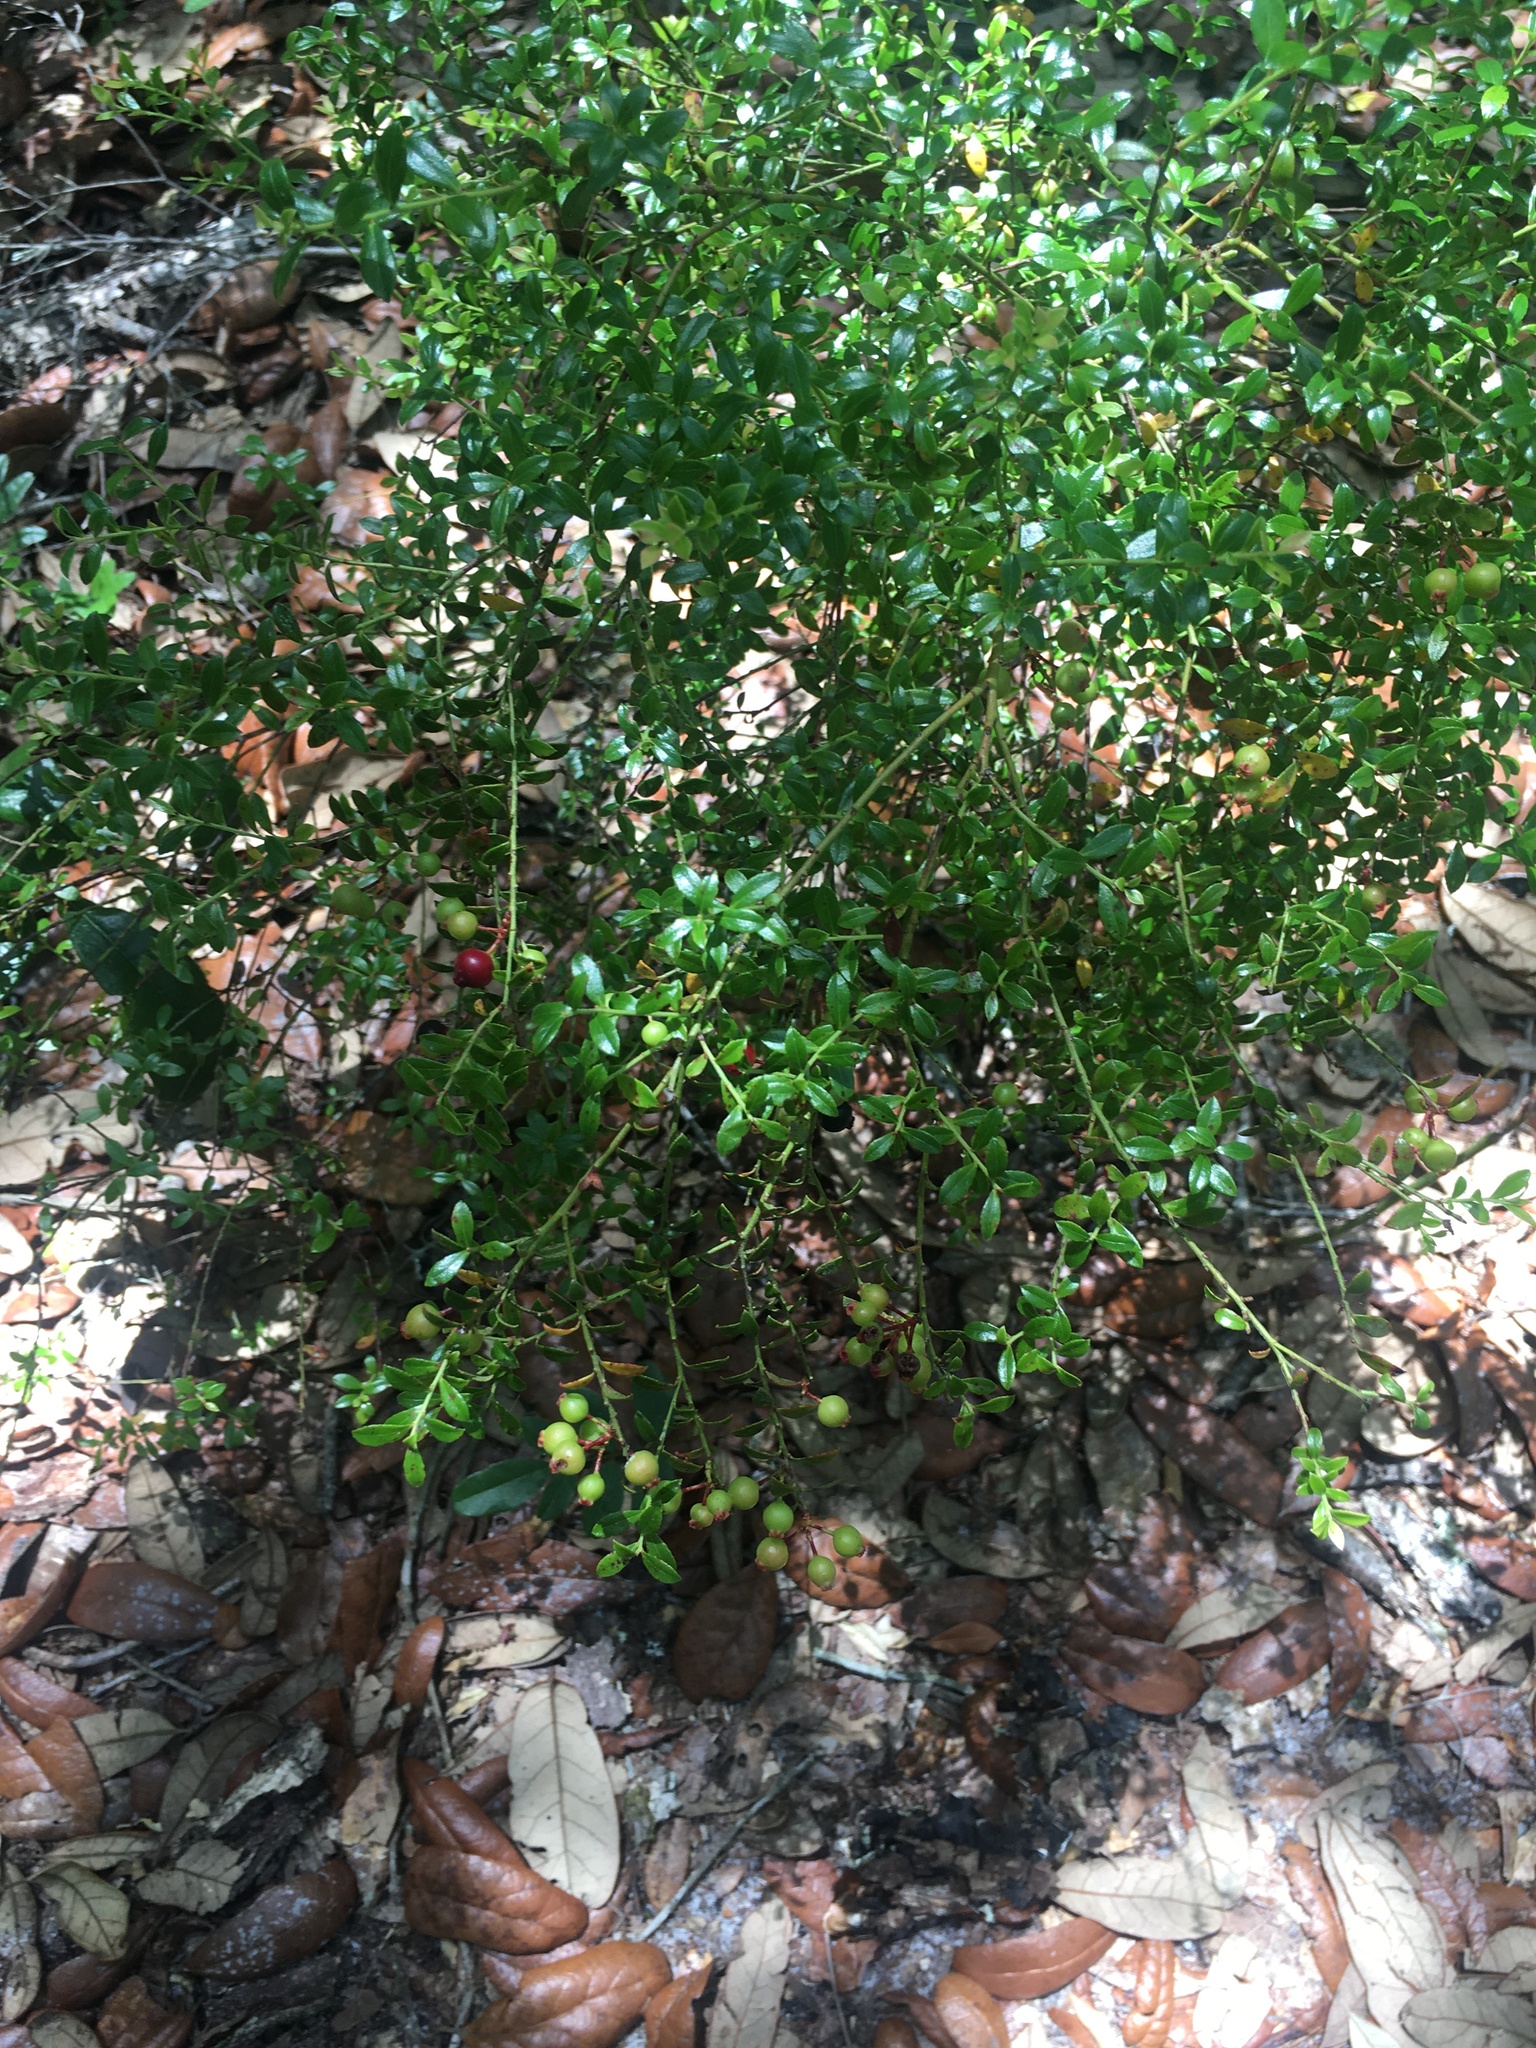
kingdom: Plantae
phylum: Tracheophyta
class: Magnoliopsida
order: Ericales
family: Ericaceae
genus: Vaccinium
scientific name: Vaccinium myrsinites
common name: Evergreen blueberry
